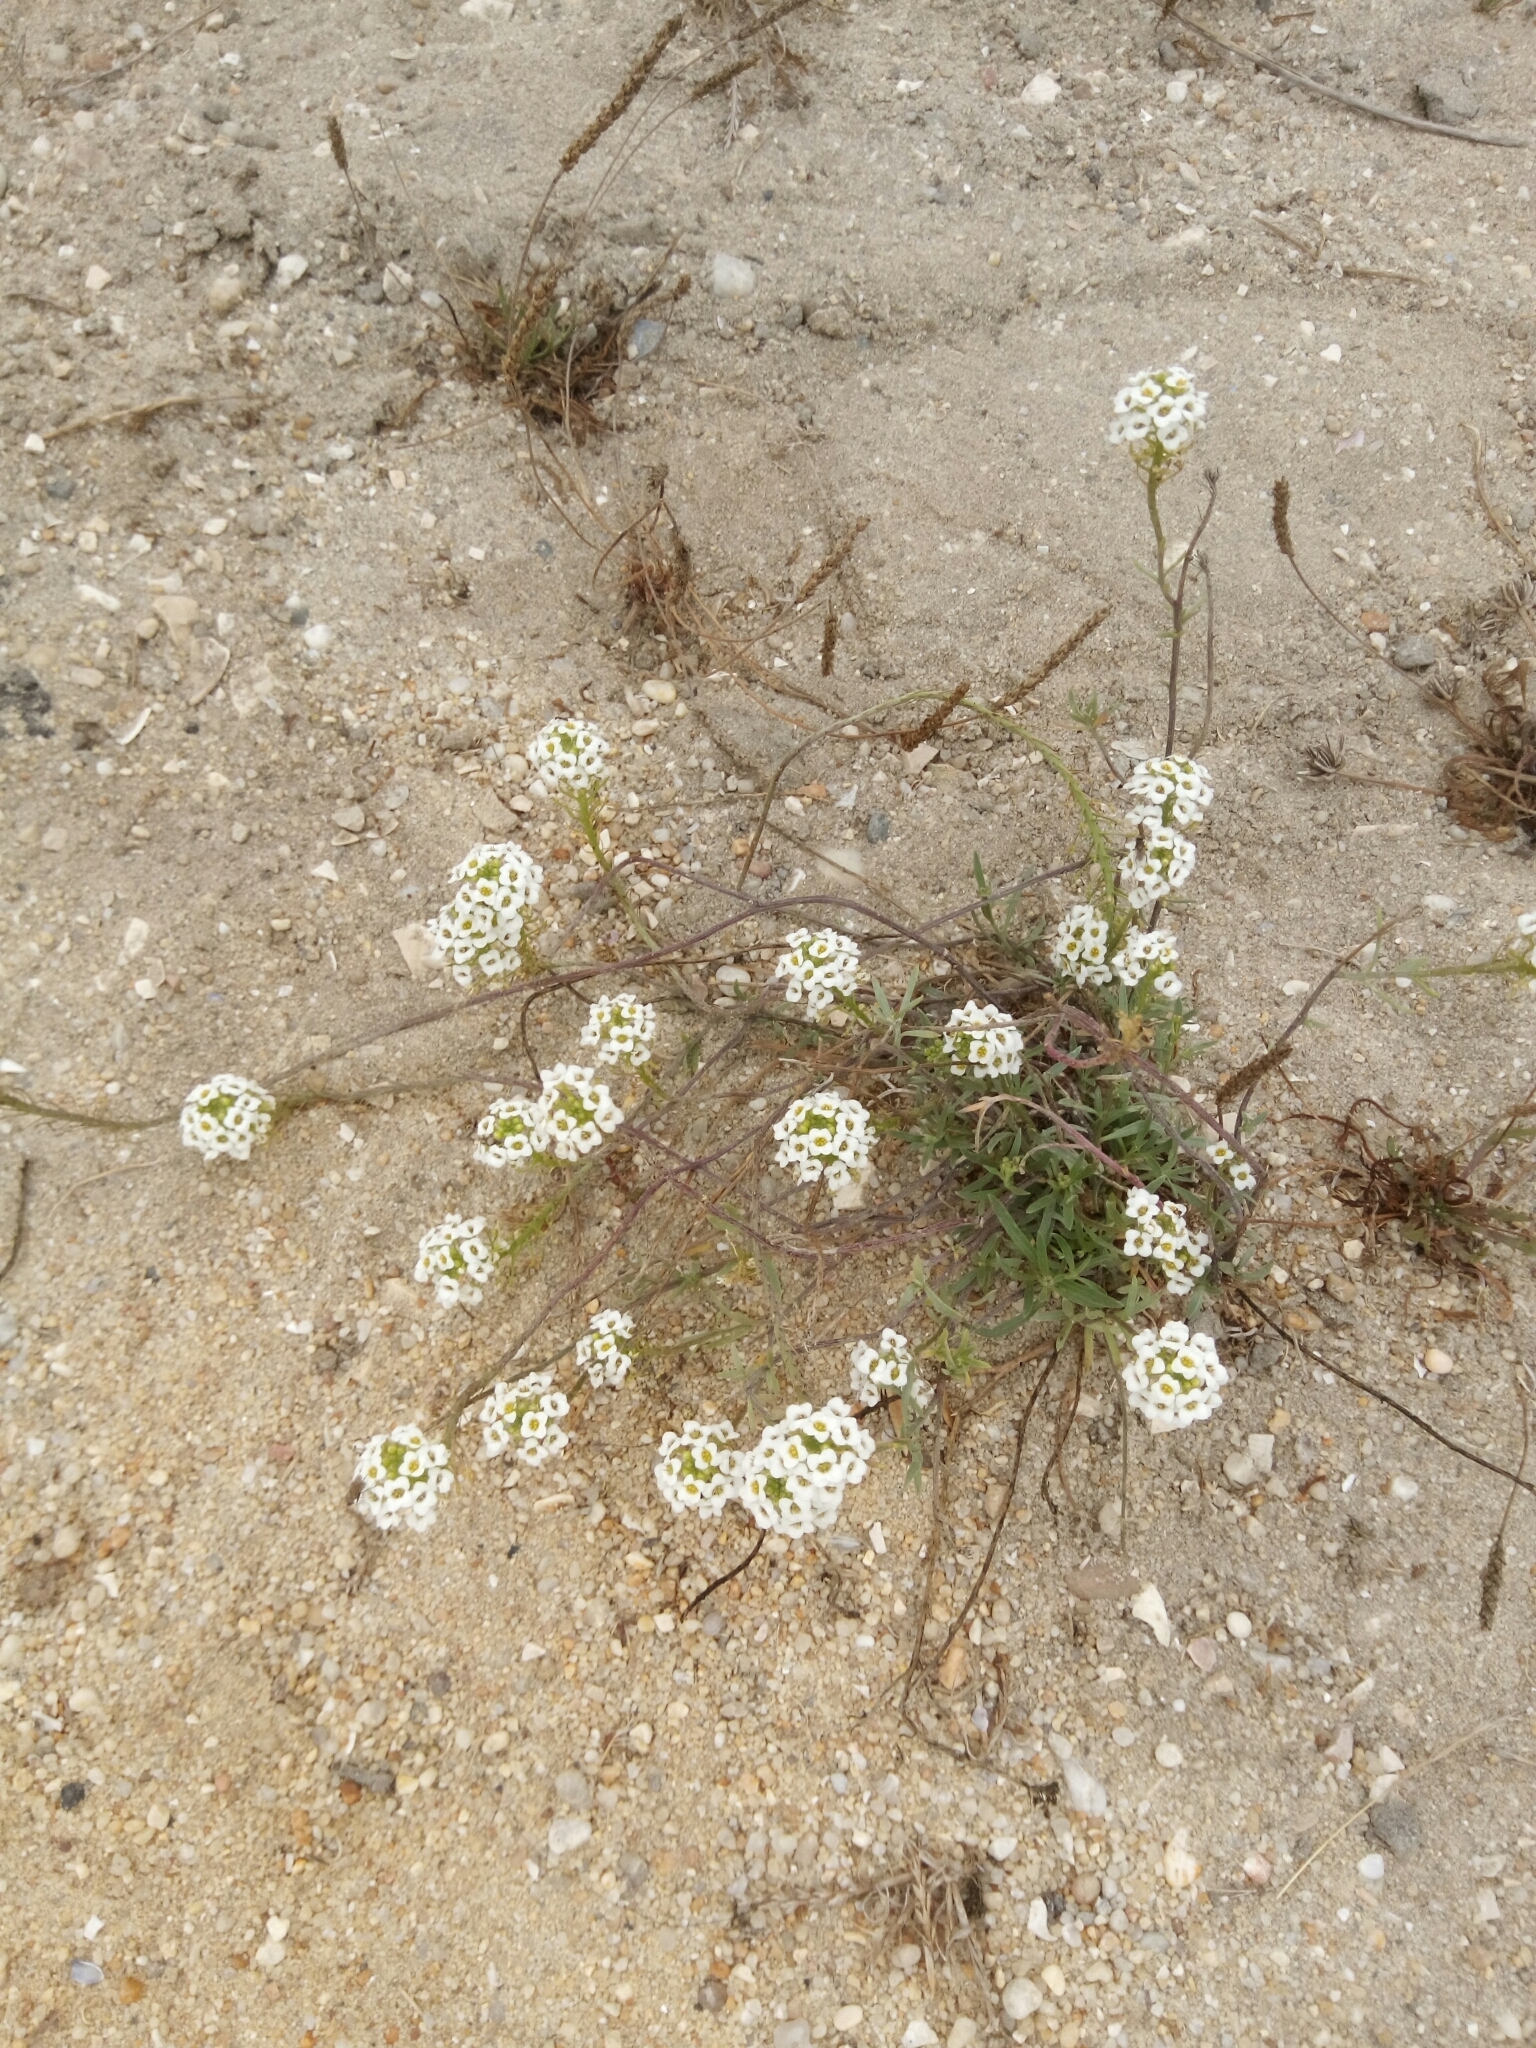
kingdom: Plantae
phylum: Tracheophyta
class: Magnoliopsida
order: Brassicales
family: Brassicaceae
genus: Lobularia
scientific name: Lobularia maritima
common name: Sweet alison
